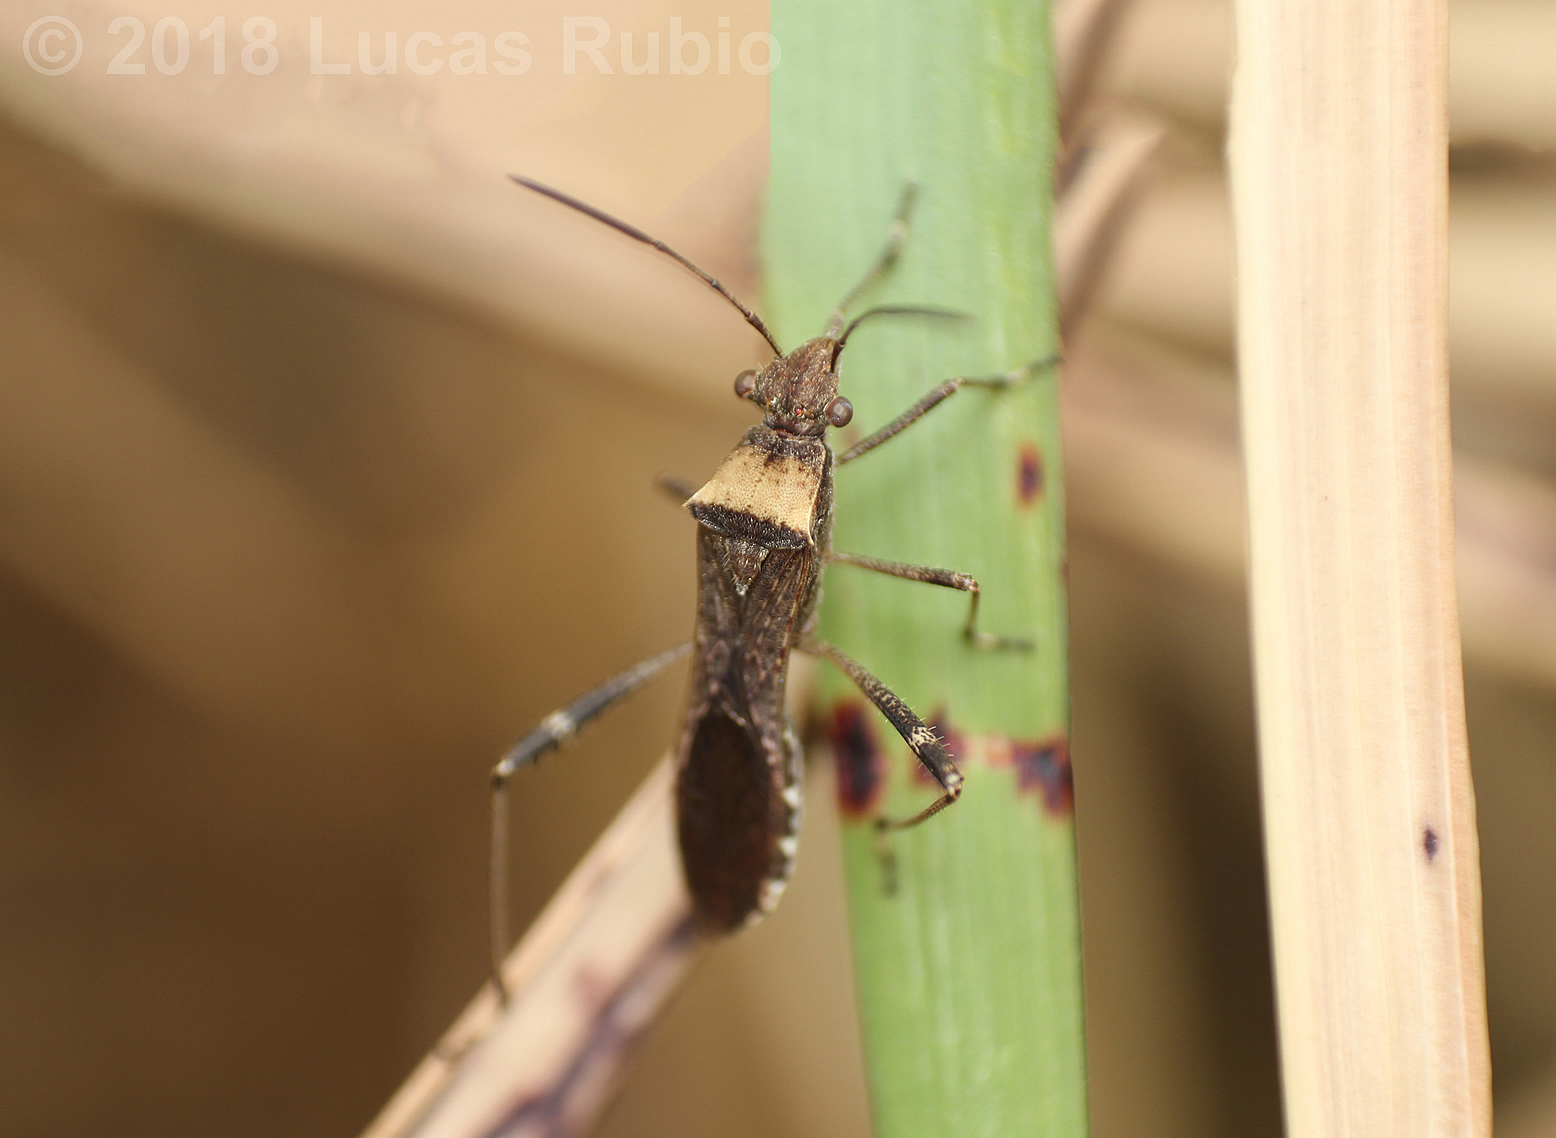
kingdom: Animalia
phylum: Arthropoda
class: Insecta
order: Hemiptera
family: Alydidae
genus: Neomegalotomus
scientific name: Neomegalotomus parvus
